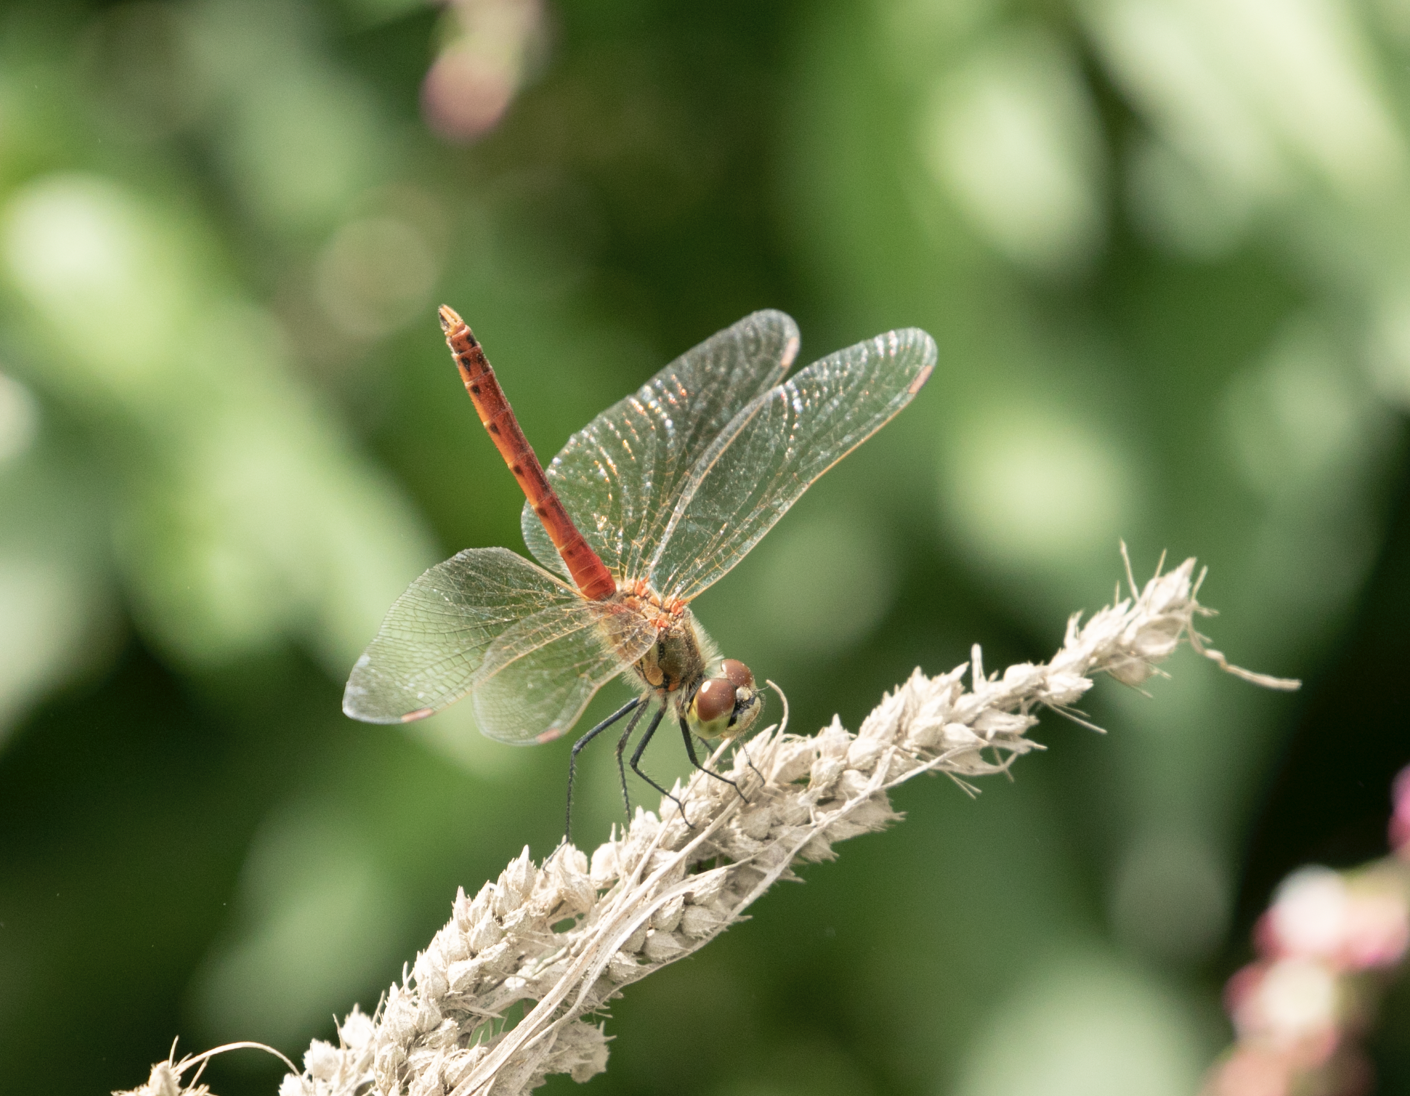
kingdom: Animalia
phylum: Arthropoda
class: Insecta
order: Odonata
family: Libellulidae
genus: Sympetrum
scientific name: Sympetrum depressiusculum
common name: Spotted darter
